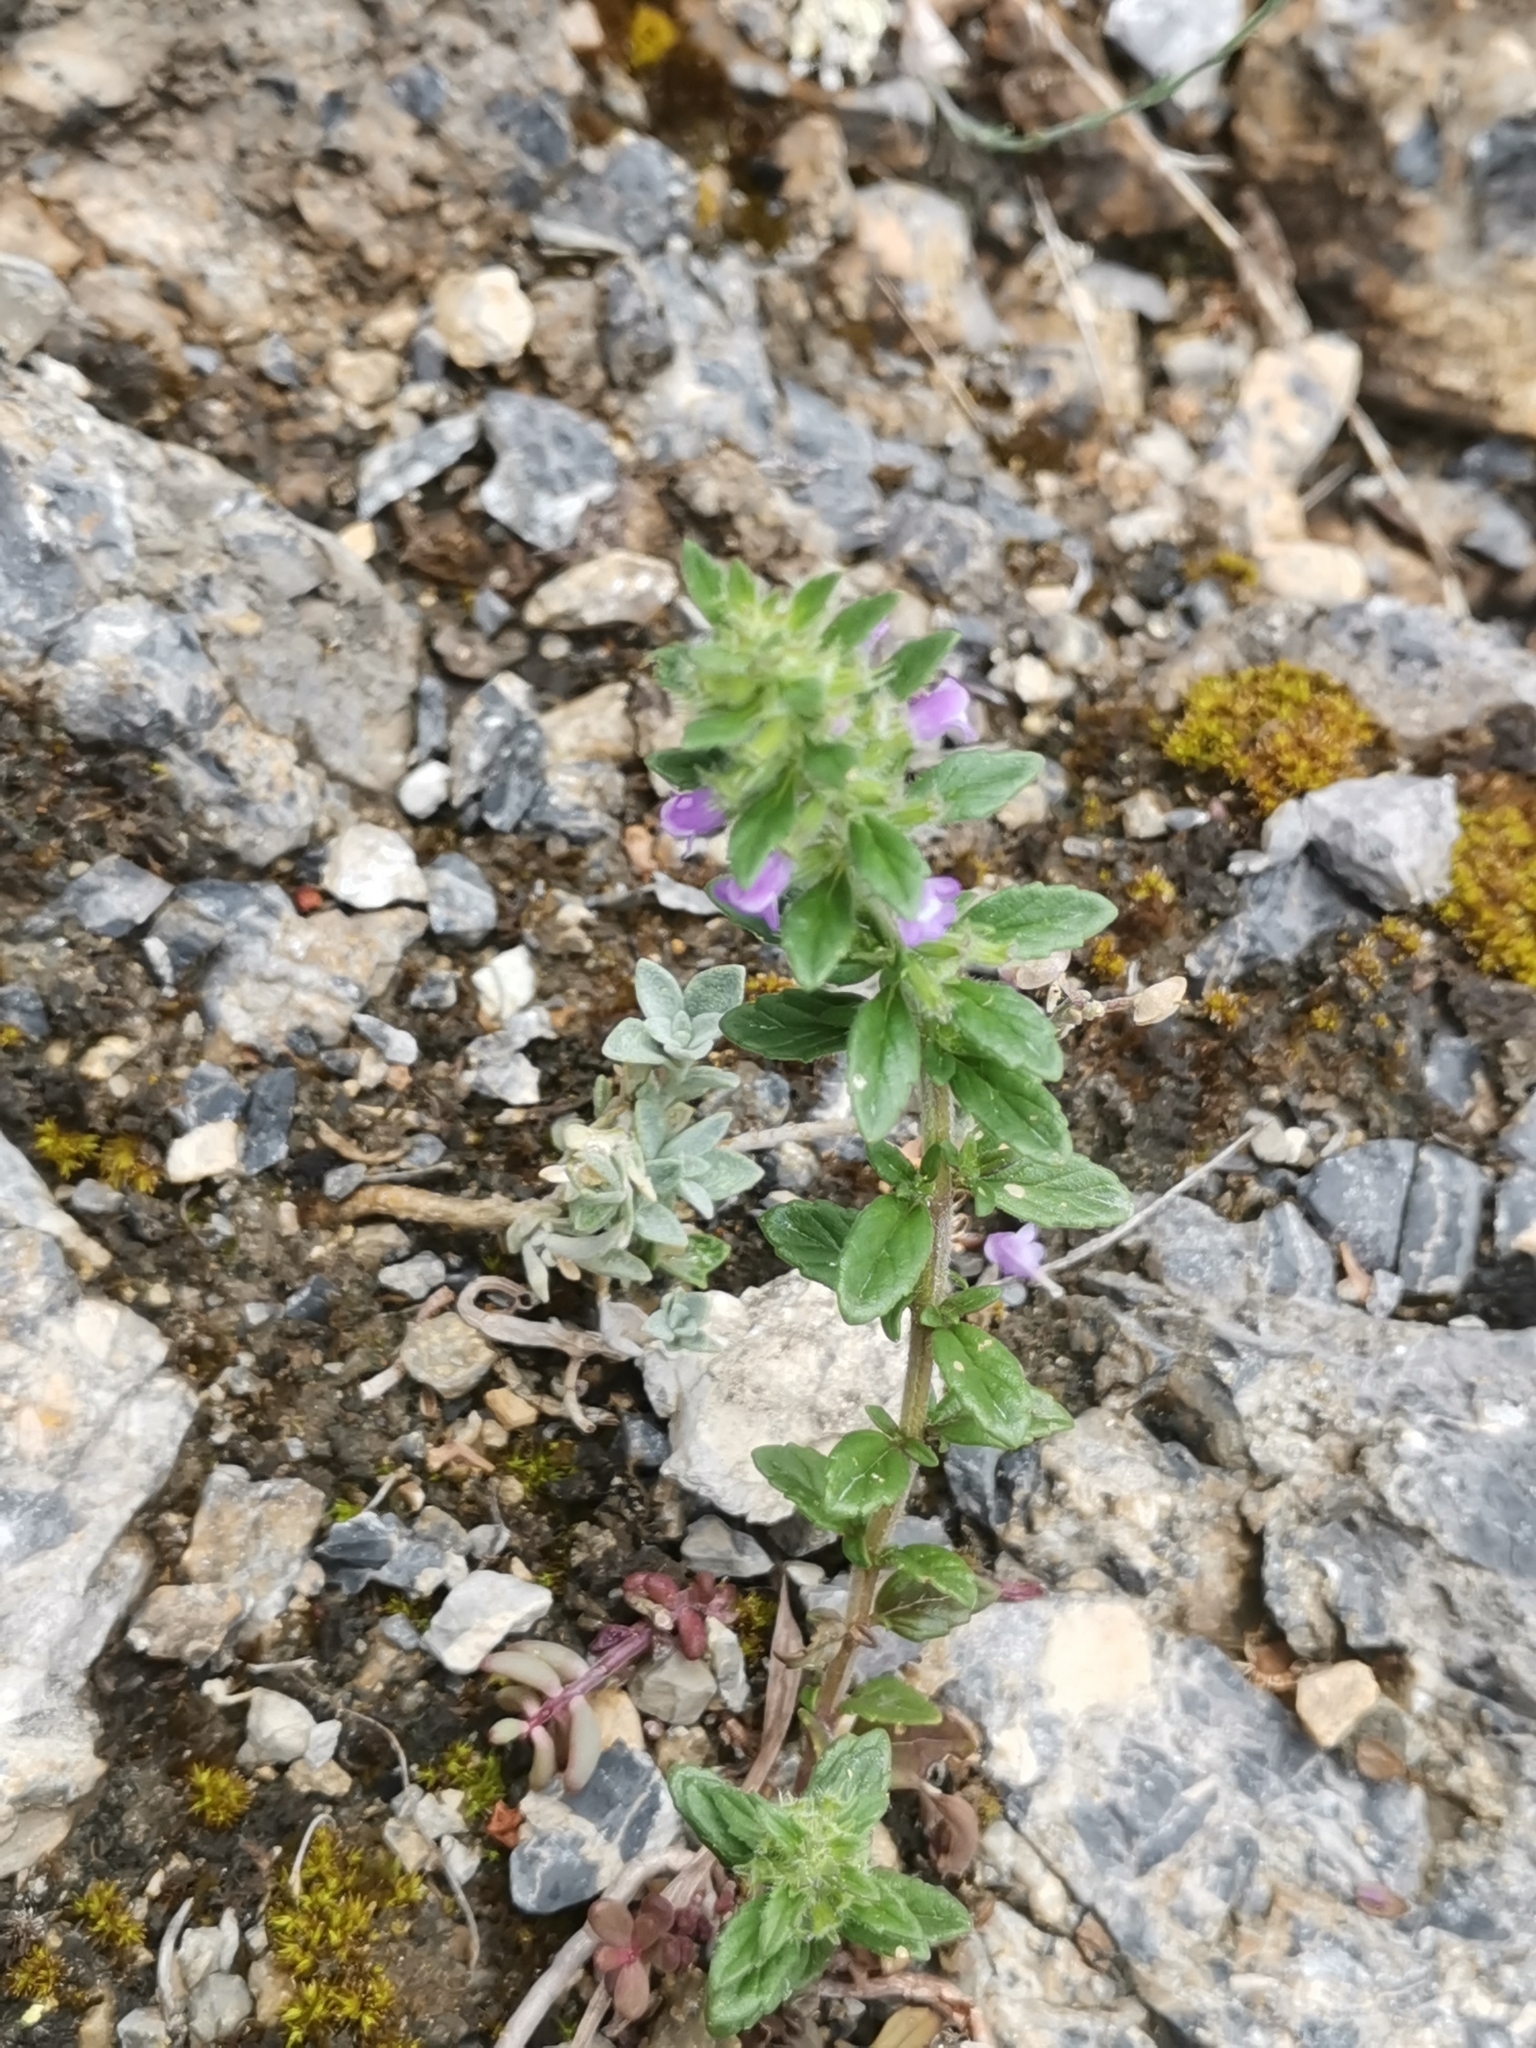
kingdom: Plantae
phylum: Tracheophyta
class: Magnoliopsida
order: Lamiales
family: Lamiaceae
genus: Clinopodium
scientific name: Clinopodium acinos
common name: Basil thyme
